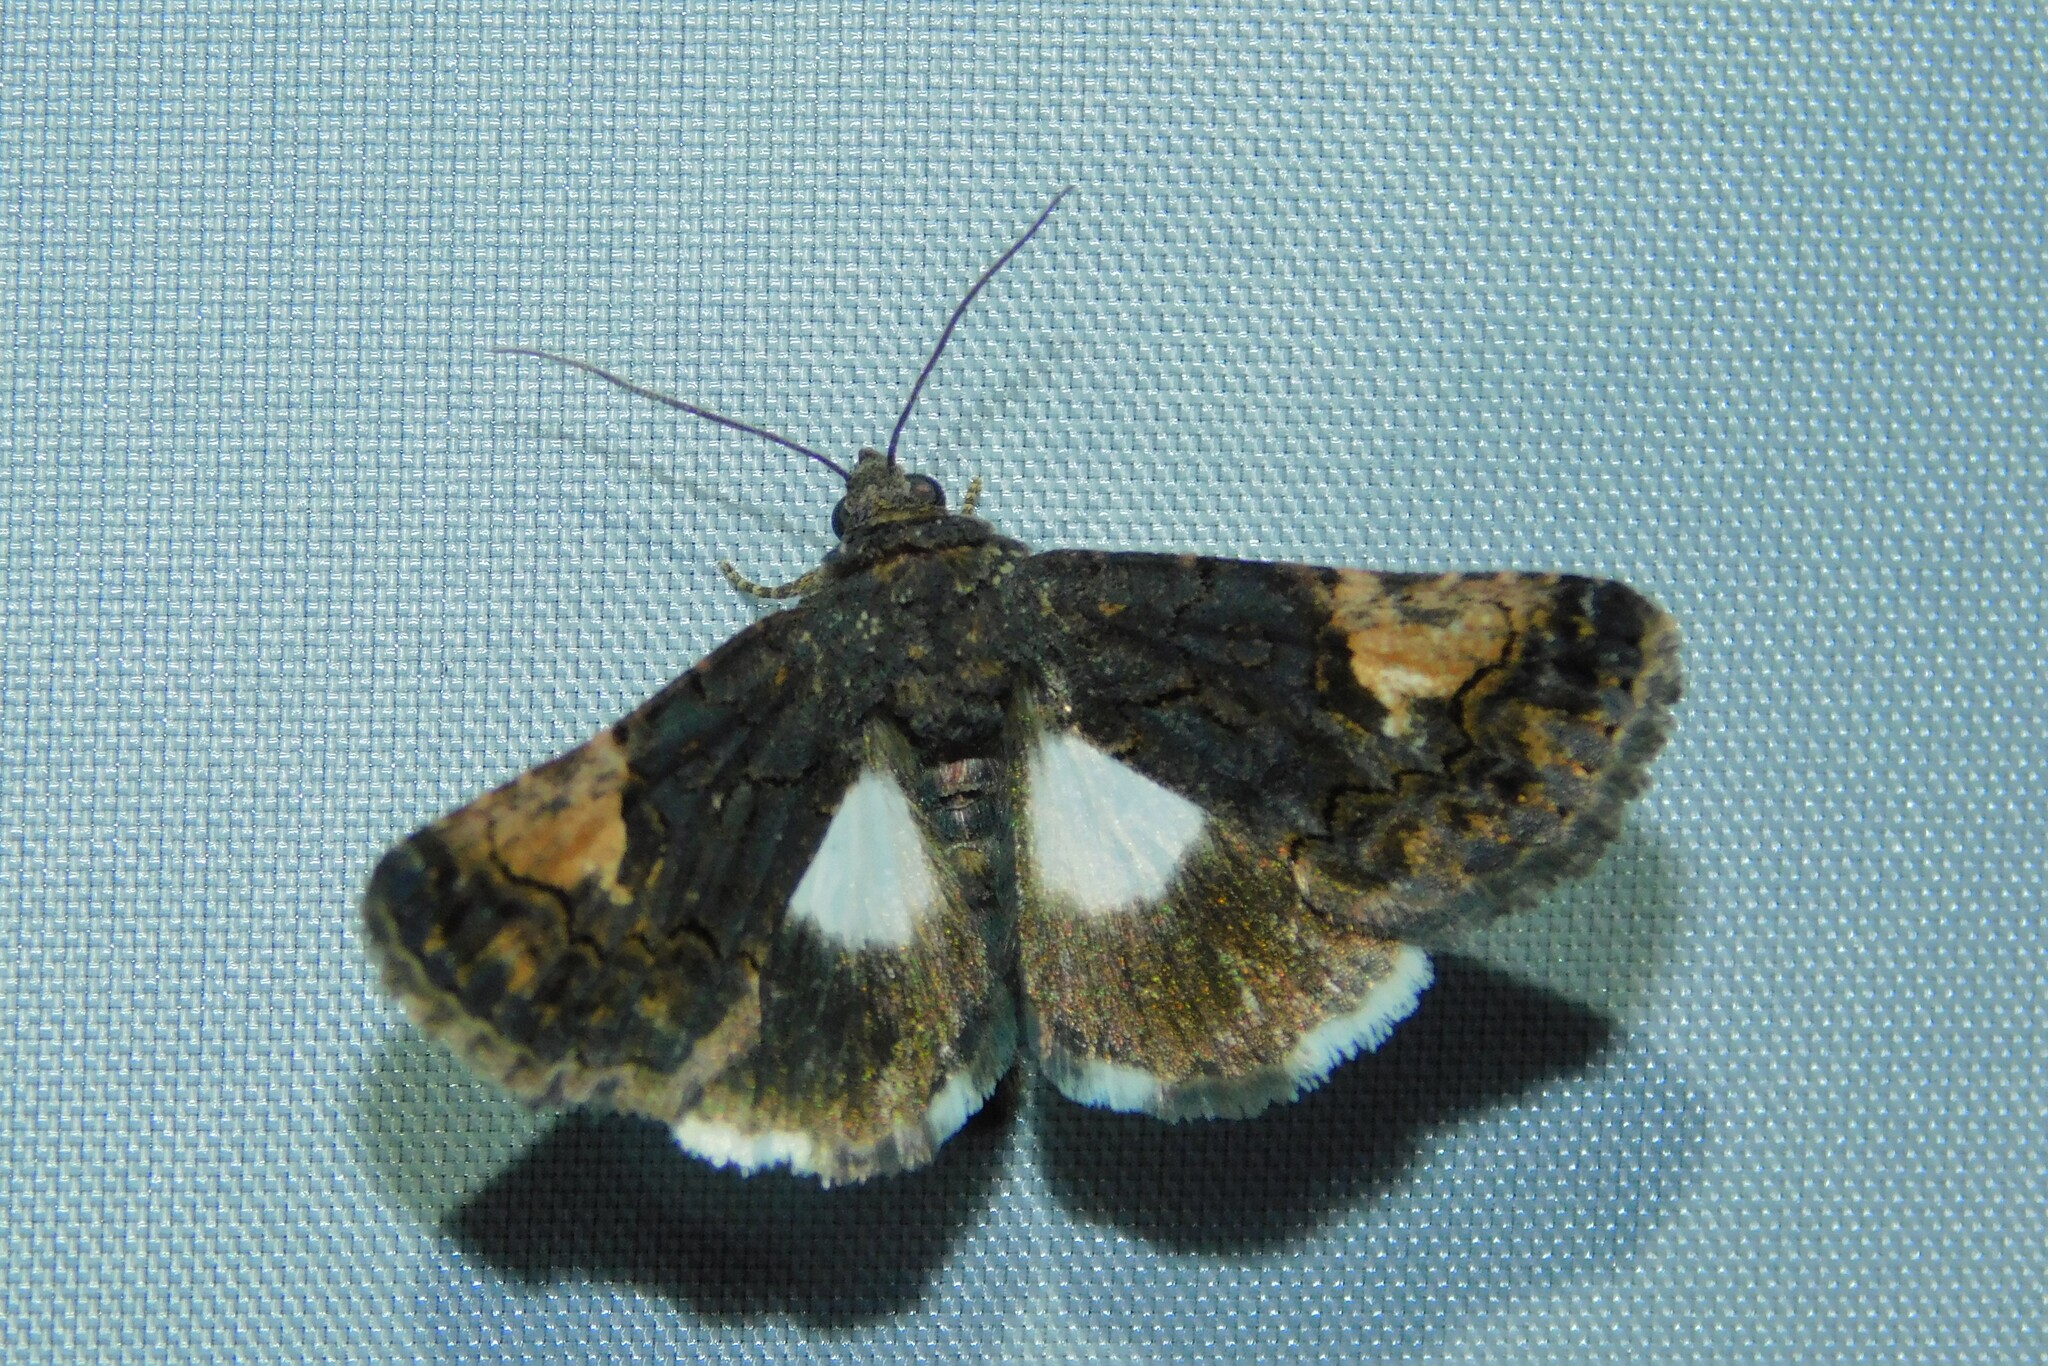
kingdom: Animalia
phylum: Arthropoda
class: Insecta
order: Lepidoptera
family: Noctuidae
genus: Aedia
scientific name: Aedia funesta
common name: The druid
